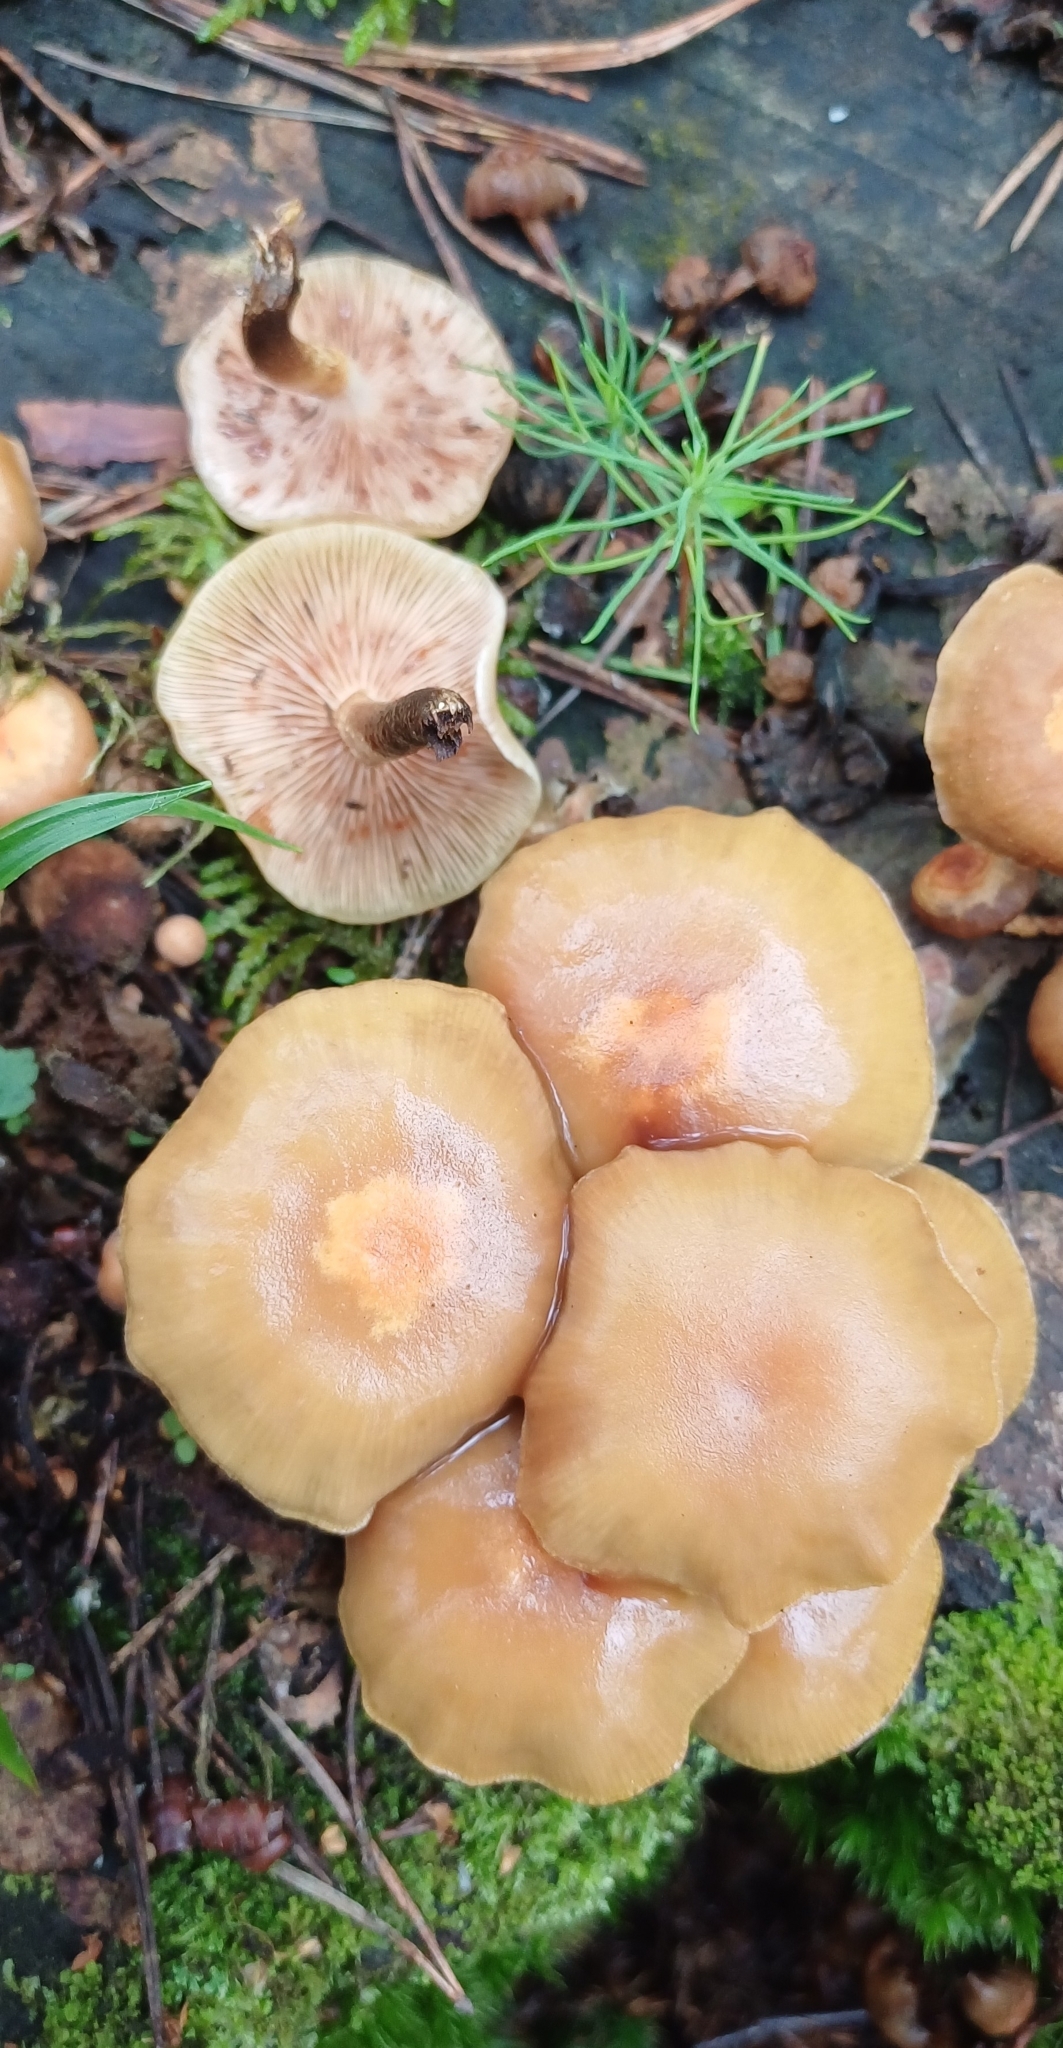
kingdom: Fungi
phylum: Basidiomycota
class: Agaricomycetes
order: Agaricales
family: Strophariaceae
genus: Kuehneromyces
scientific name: Kuehneromyces mutabilis
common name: Sheathed woodtuft
